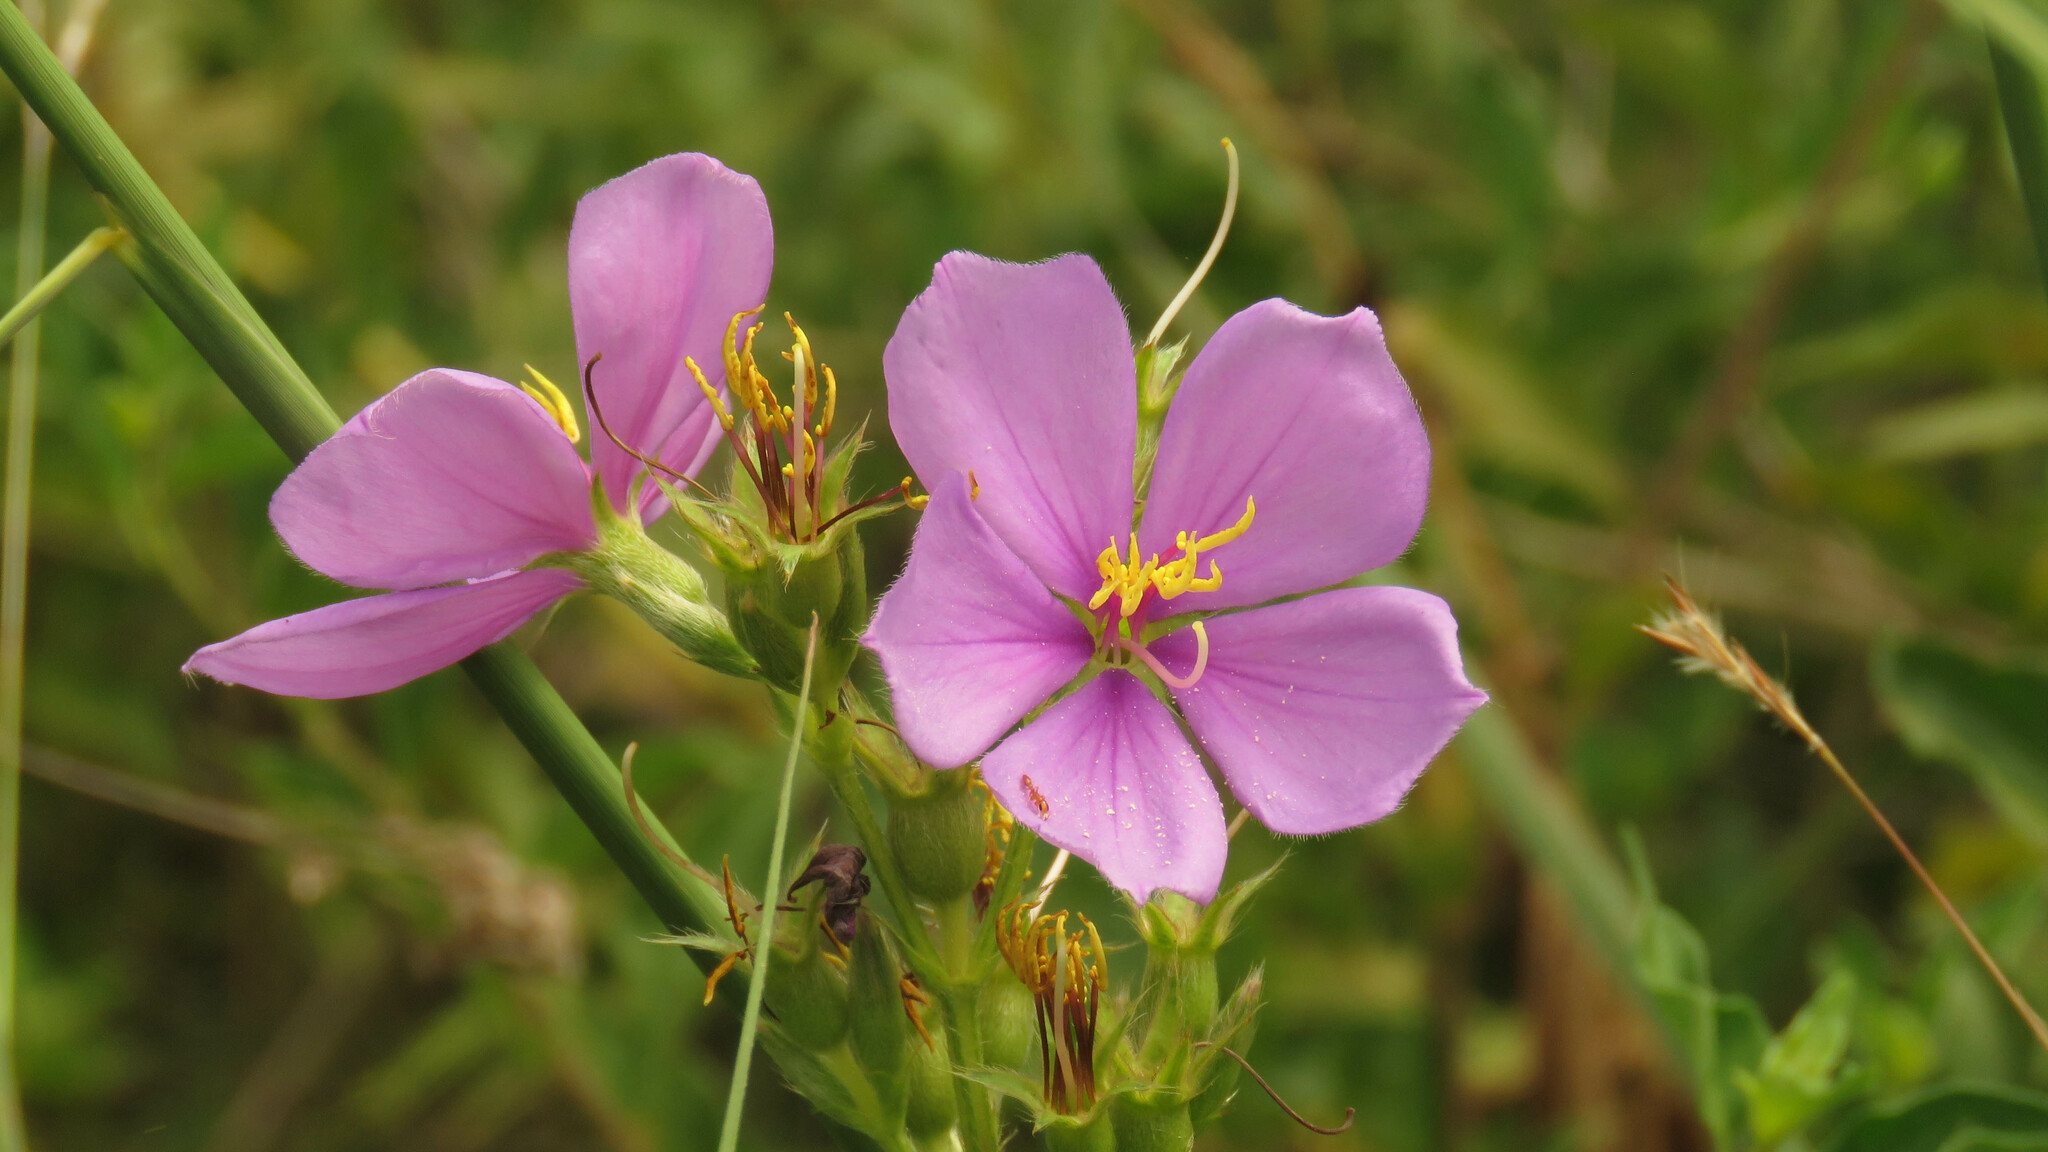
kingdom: Plantae
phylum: Tracheophyta
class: Magnoliopsida
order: Myrtales
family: Melastomataceae
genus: Chaetogastra
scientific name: Chaetogastra gracilis
